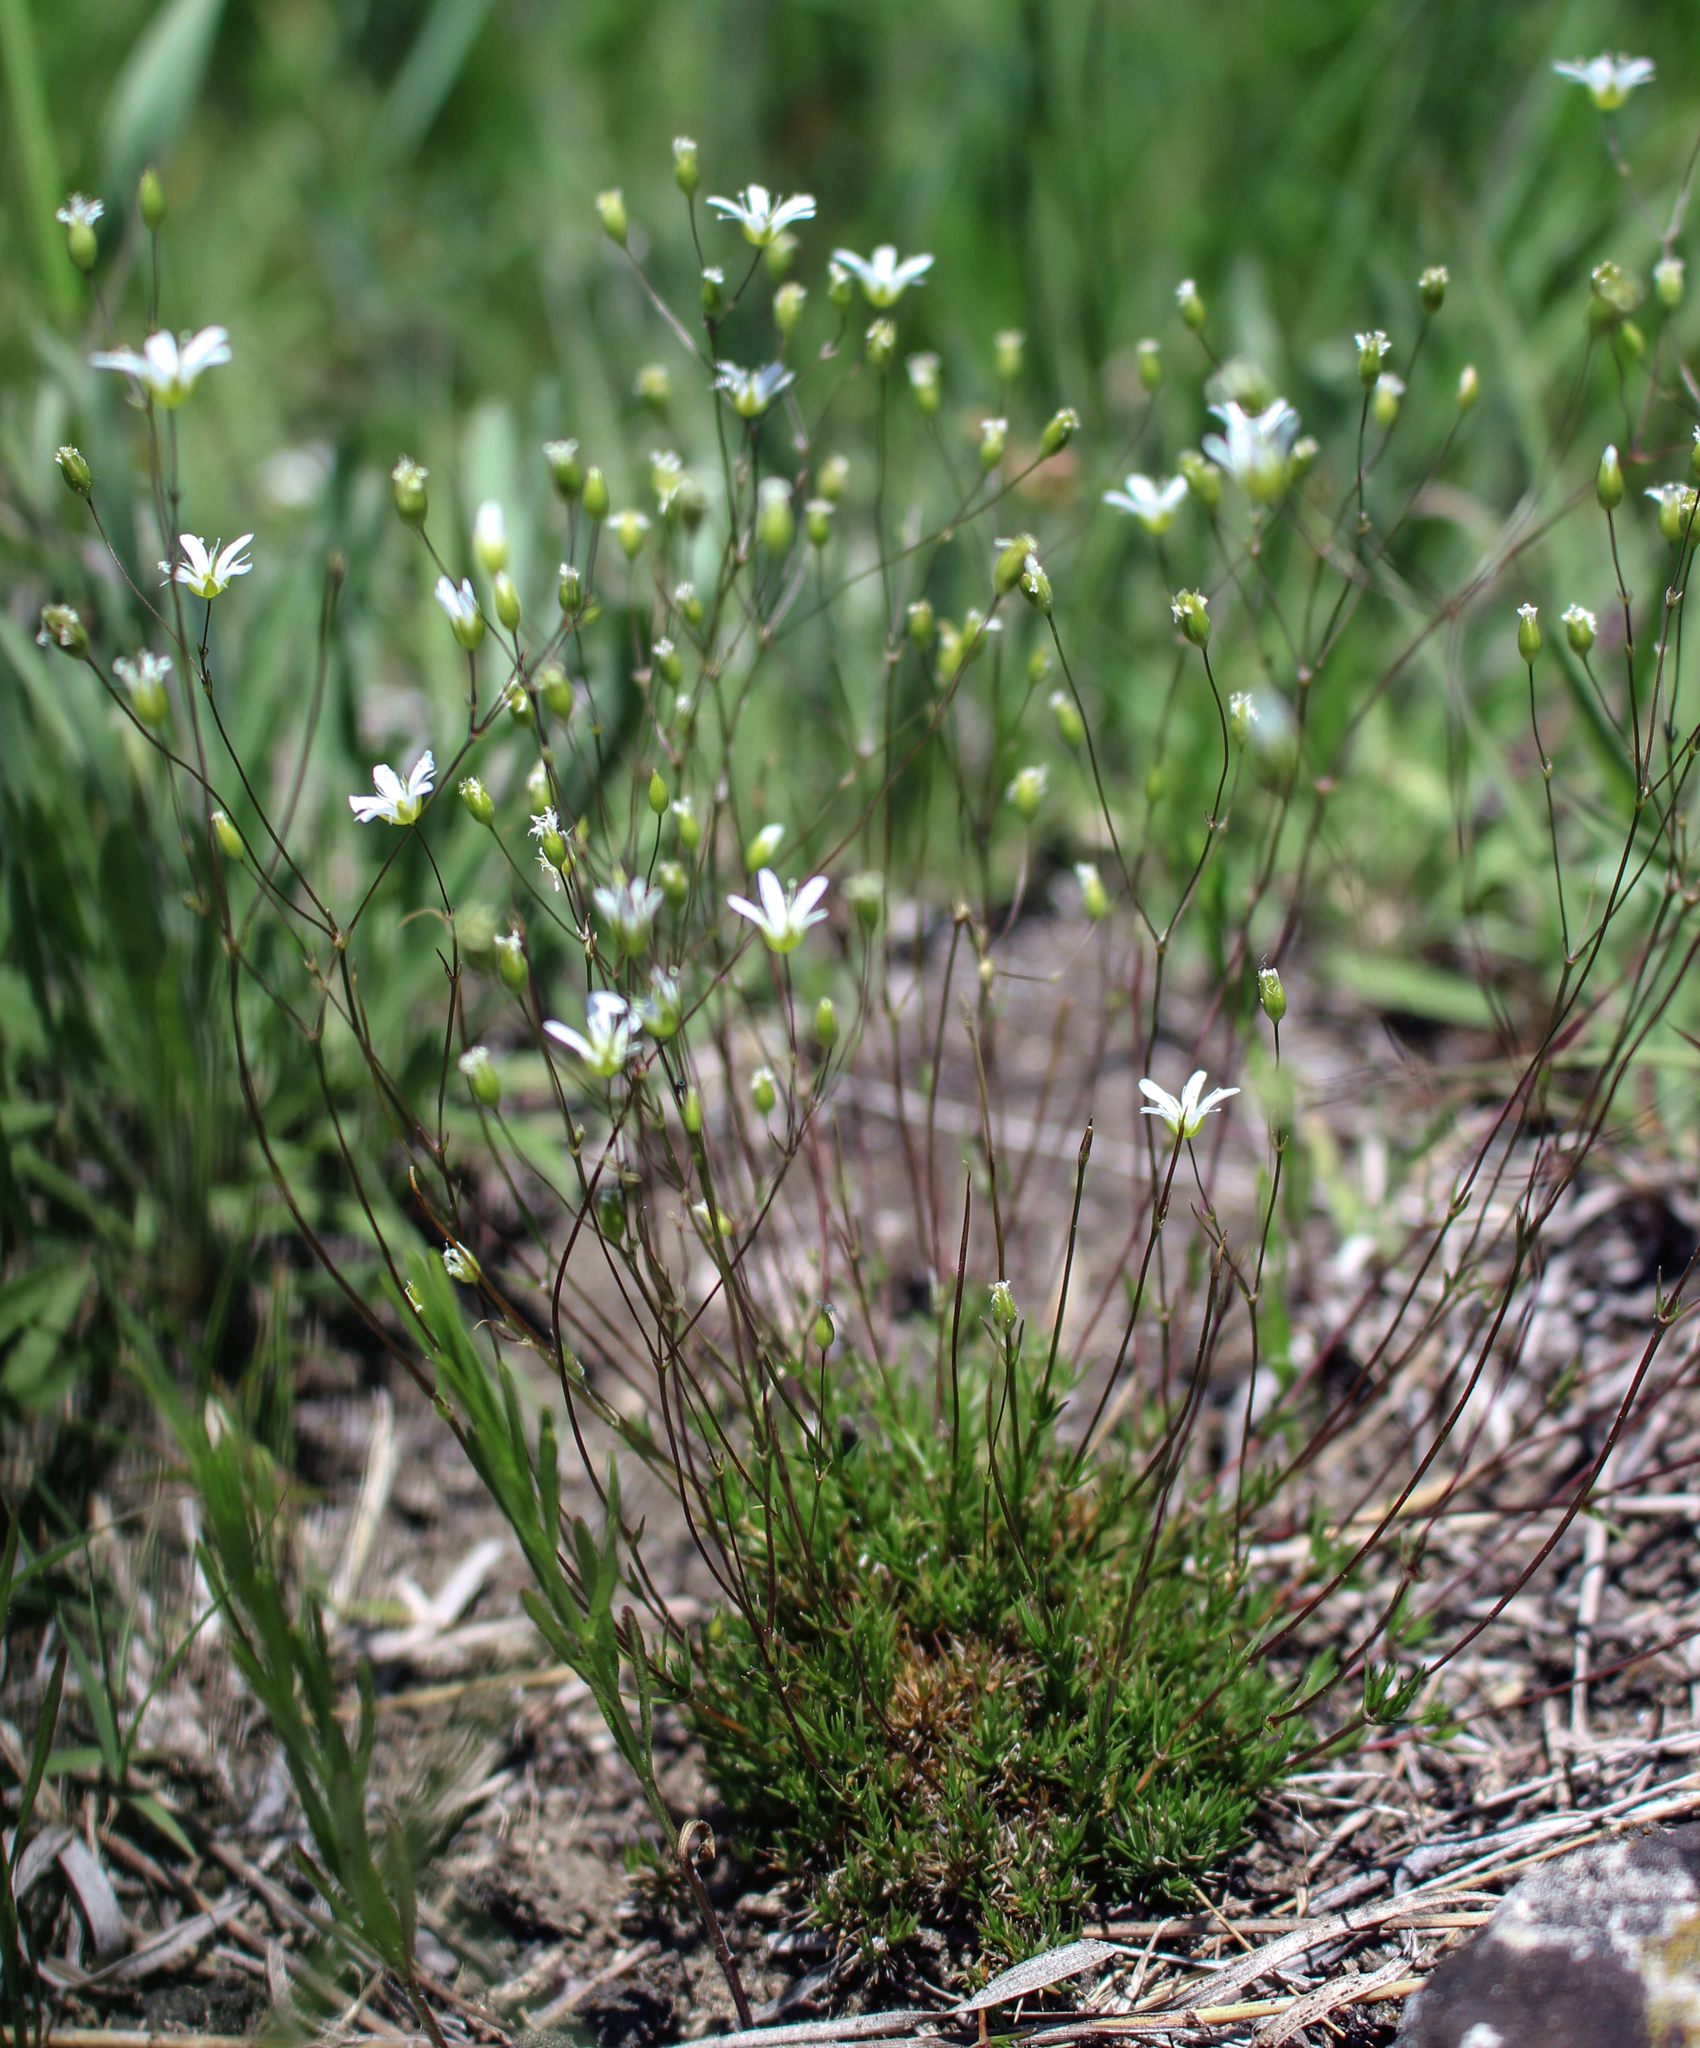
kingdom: Plantae
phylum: Tracheophyta
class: Magnoliopsida
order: Caryophyllales
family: Caryophyllaceae
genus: Sabulina
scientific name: Sabulina michauxii
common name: Michaux's stitchwort
